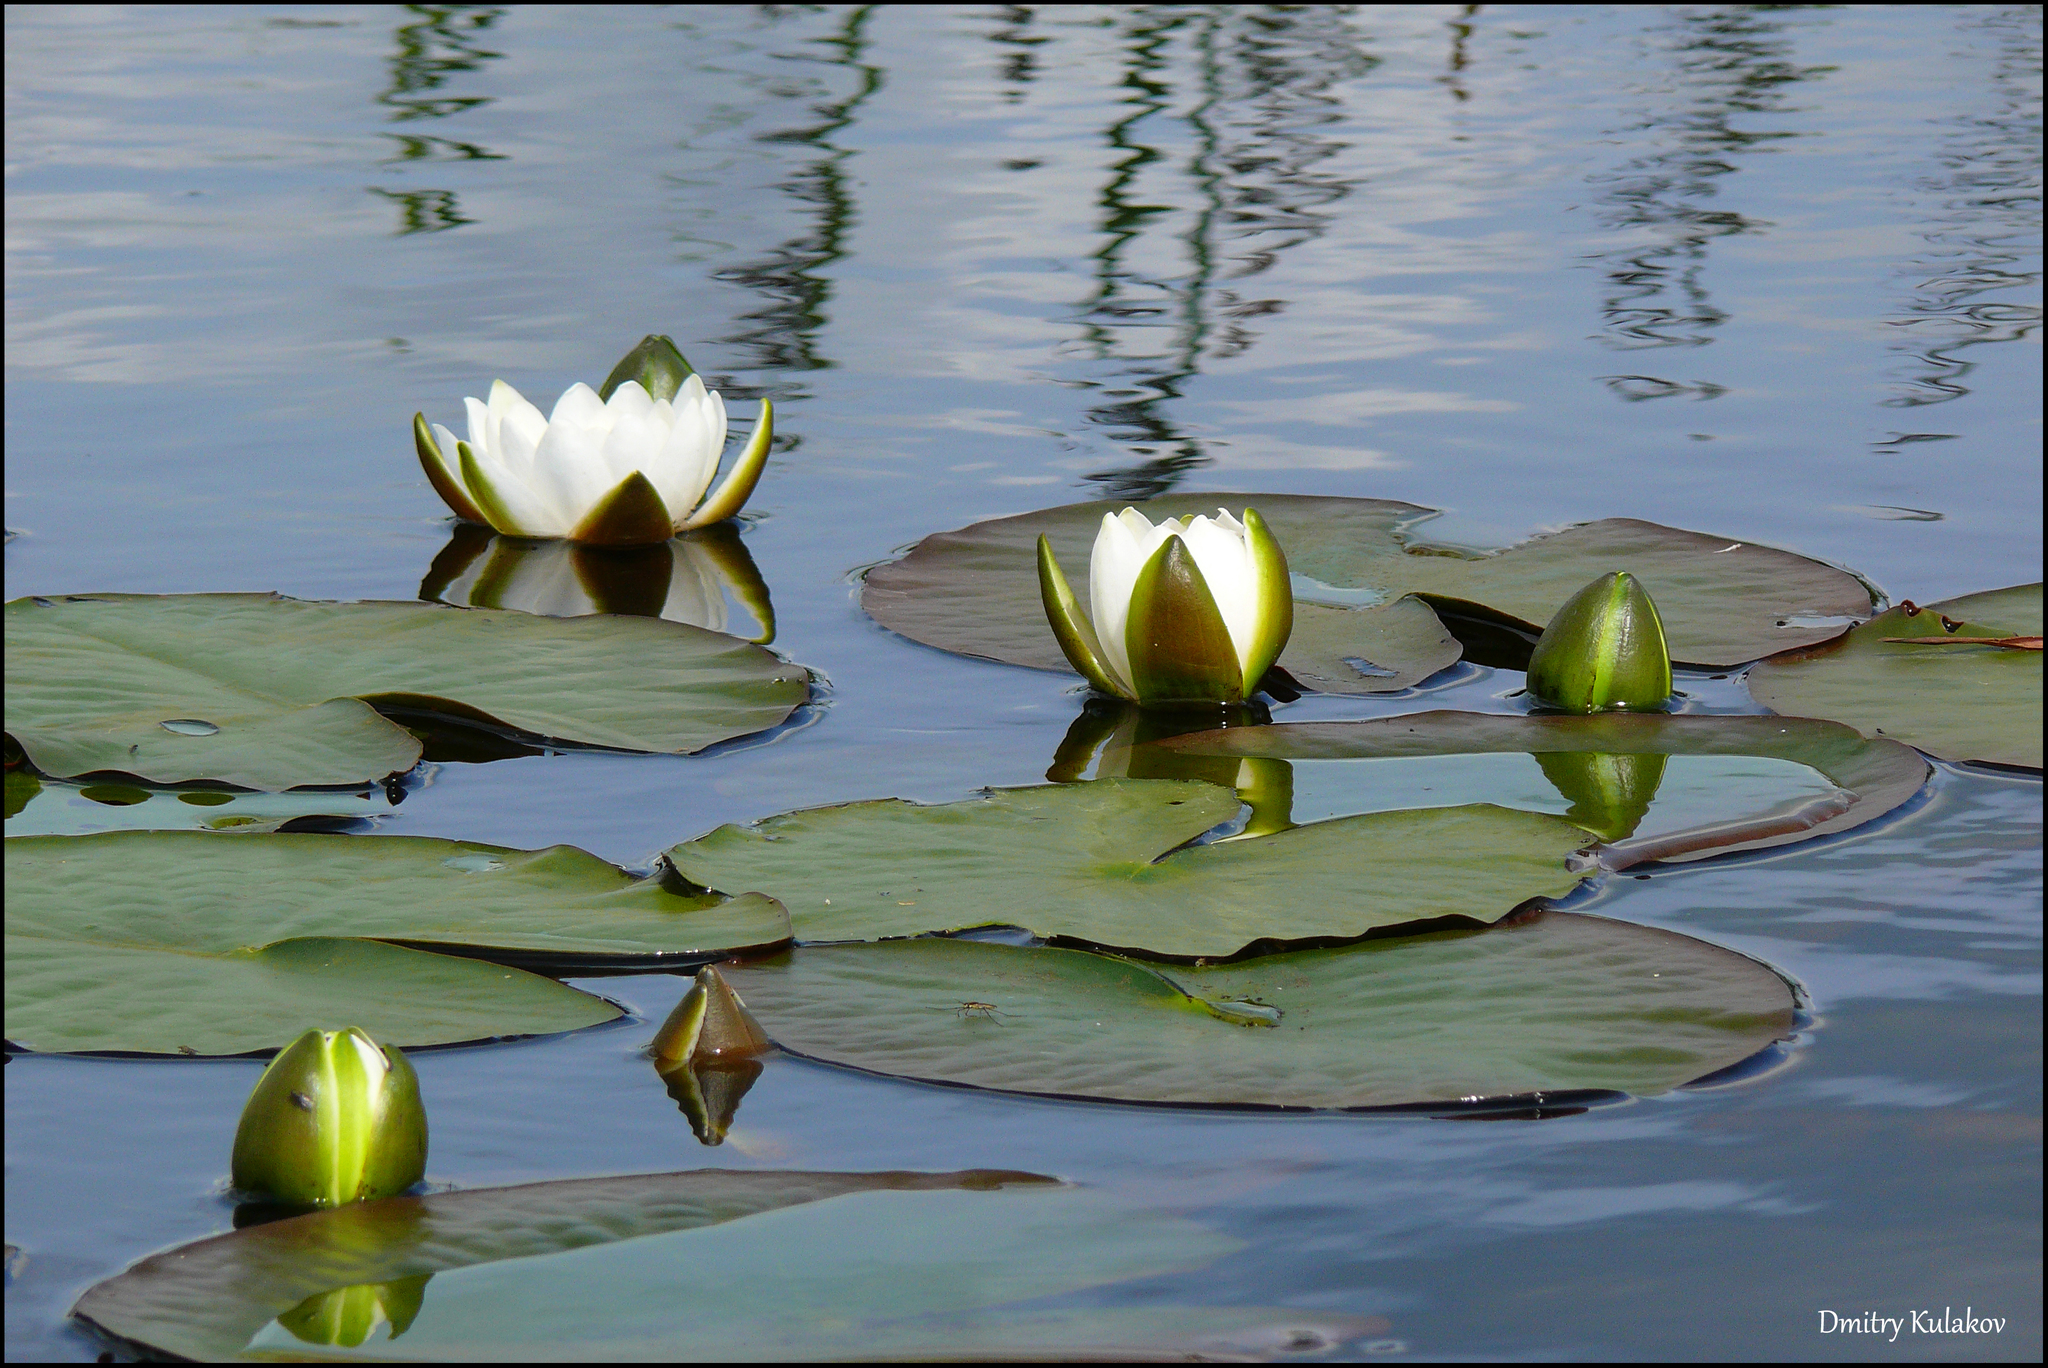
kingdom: Plantae
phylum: Tracheophyta
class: Magnoliopsida
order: Nymphaeales
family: Nymphaeaceae
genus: Nymphaea
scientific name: Nymphaea candida
